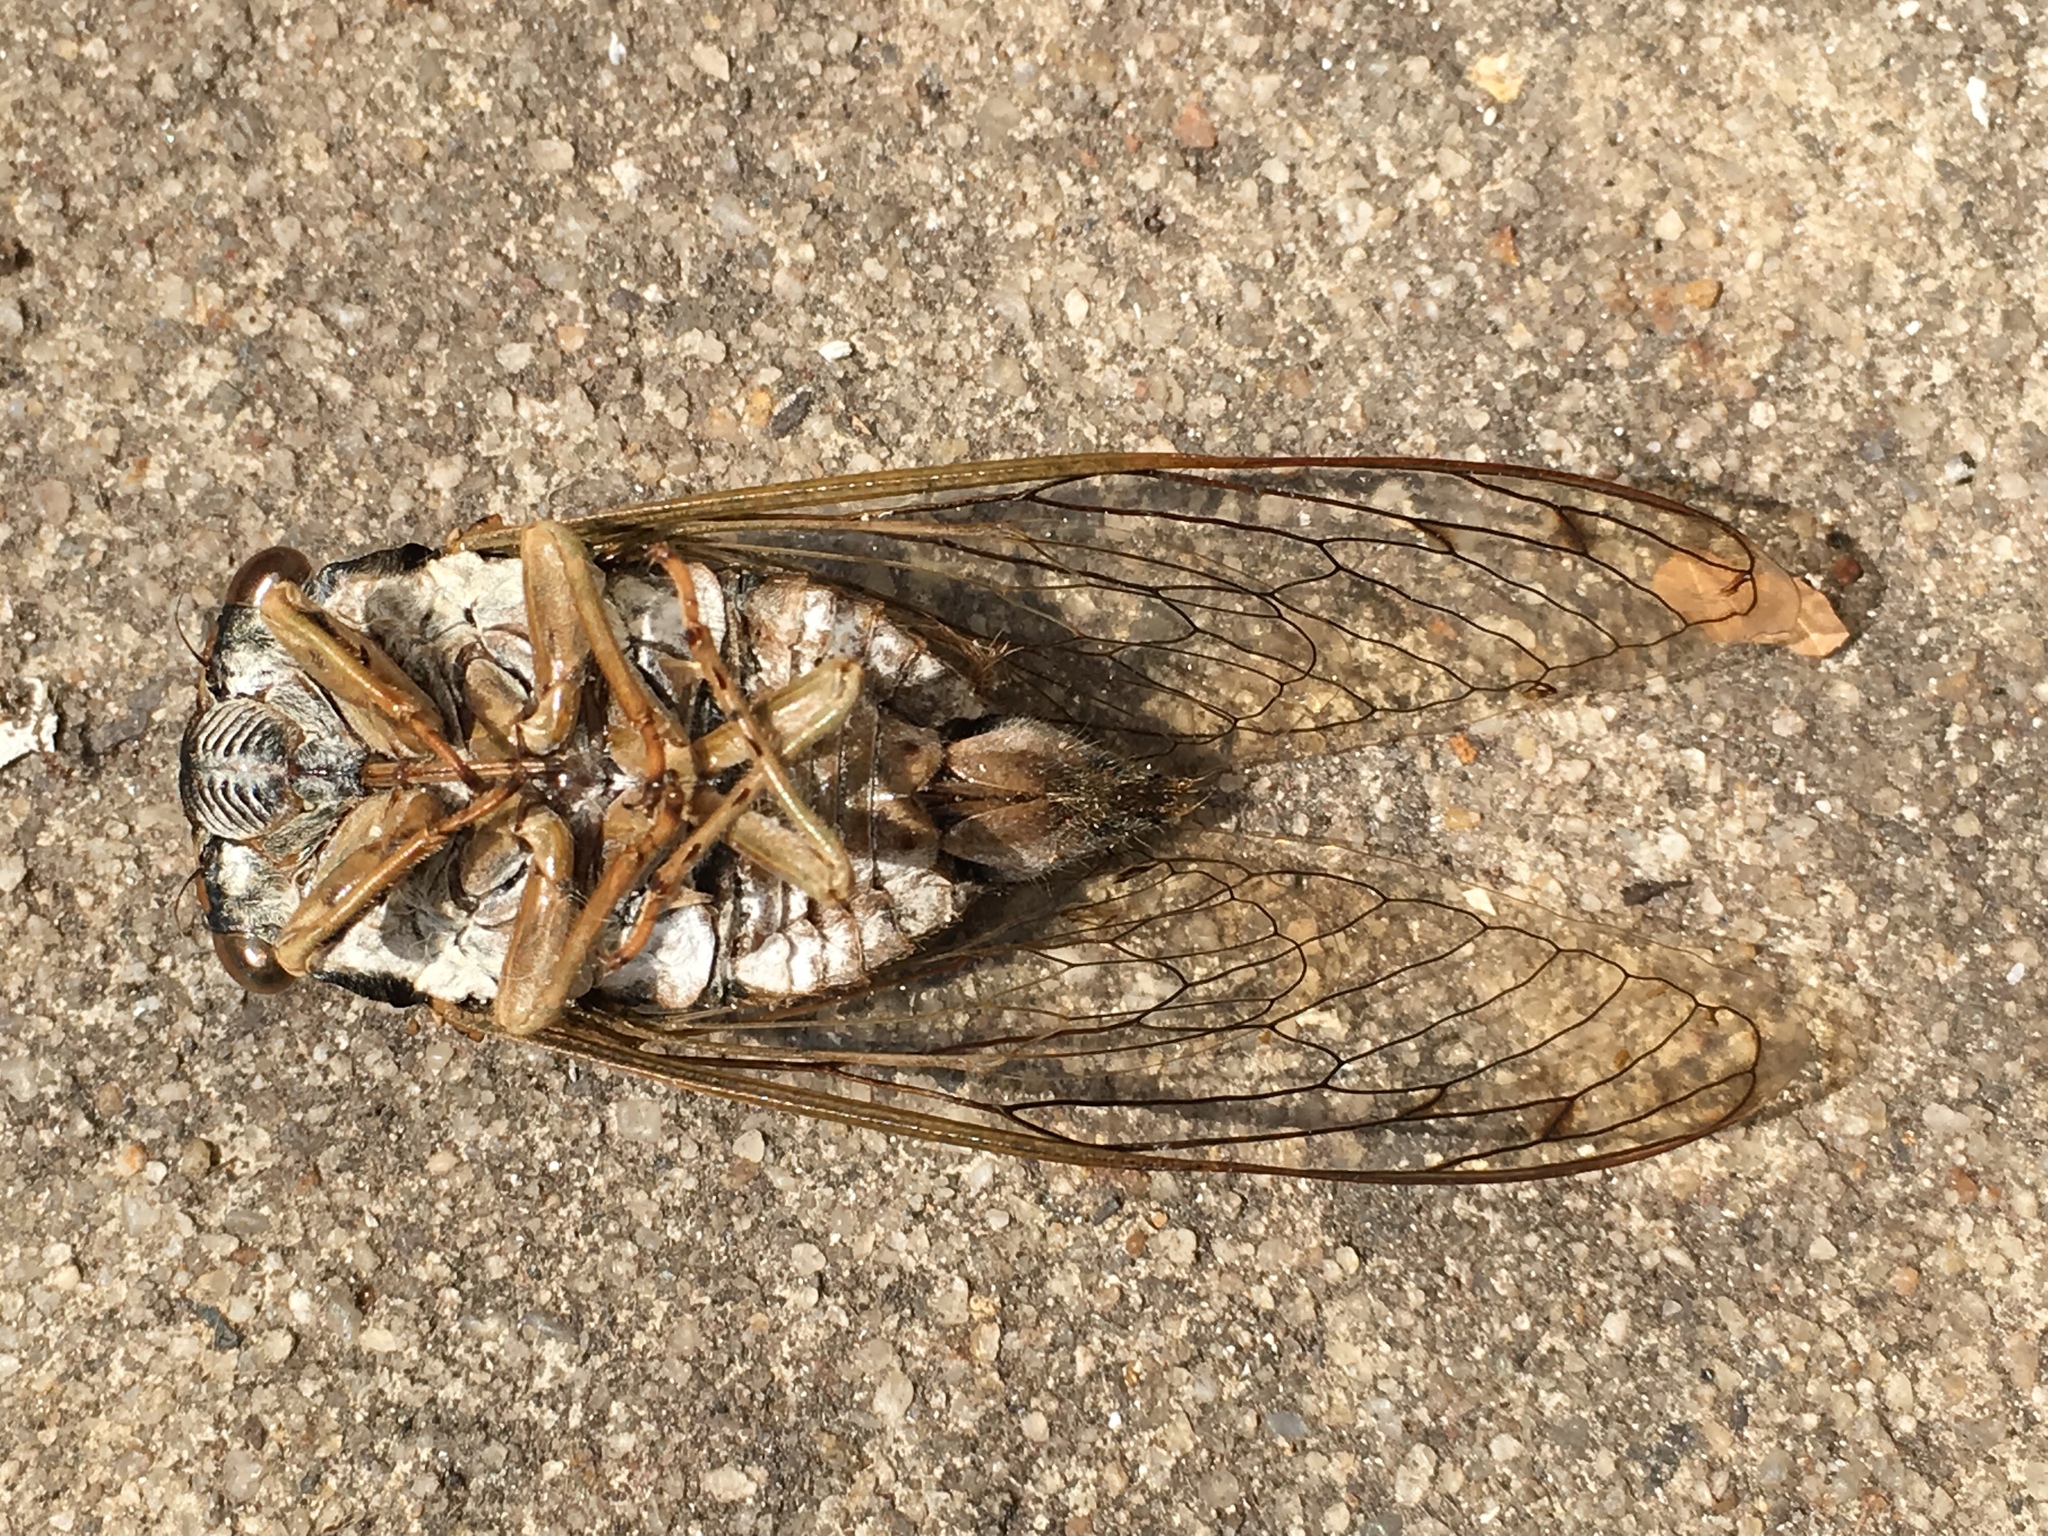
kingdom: Animalia
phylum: Arthropoda
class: Insecta
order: Hemiptera
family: Cicadidae
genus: Neotibicen
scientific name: Neotibicen tibicen
